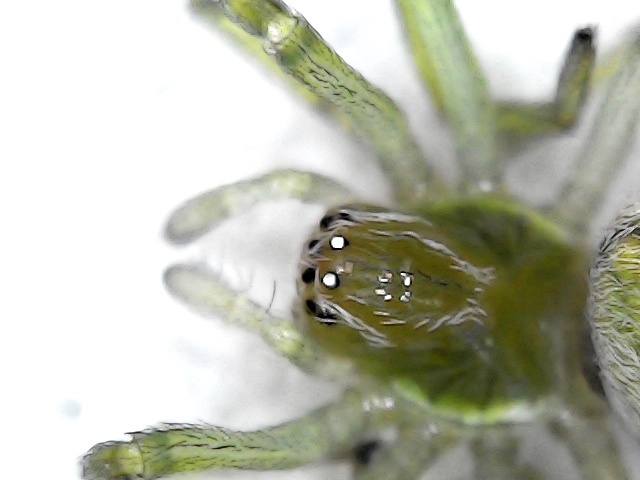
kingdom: Animalia
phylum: Arthropoda
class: Arachnida
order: Araneae
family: Dictynidae
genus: Nigma
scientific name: Nigma walckenaeri
